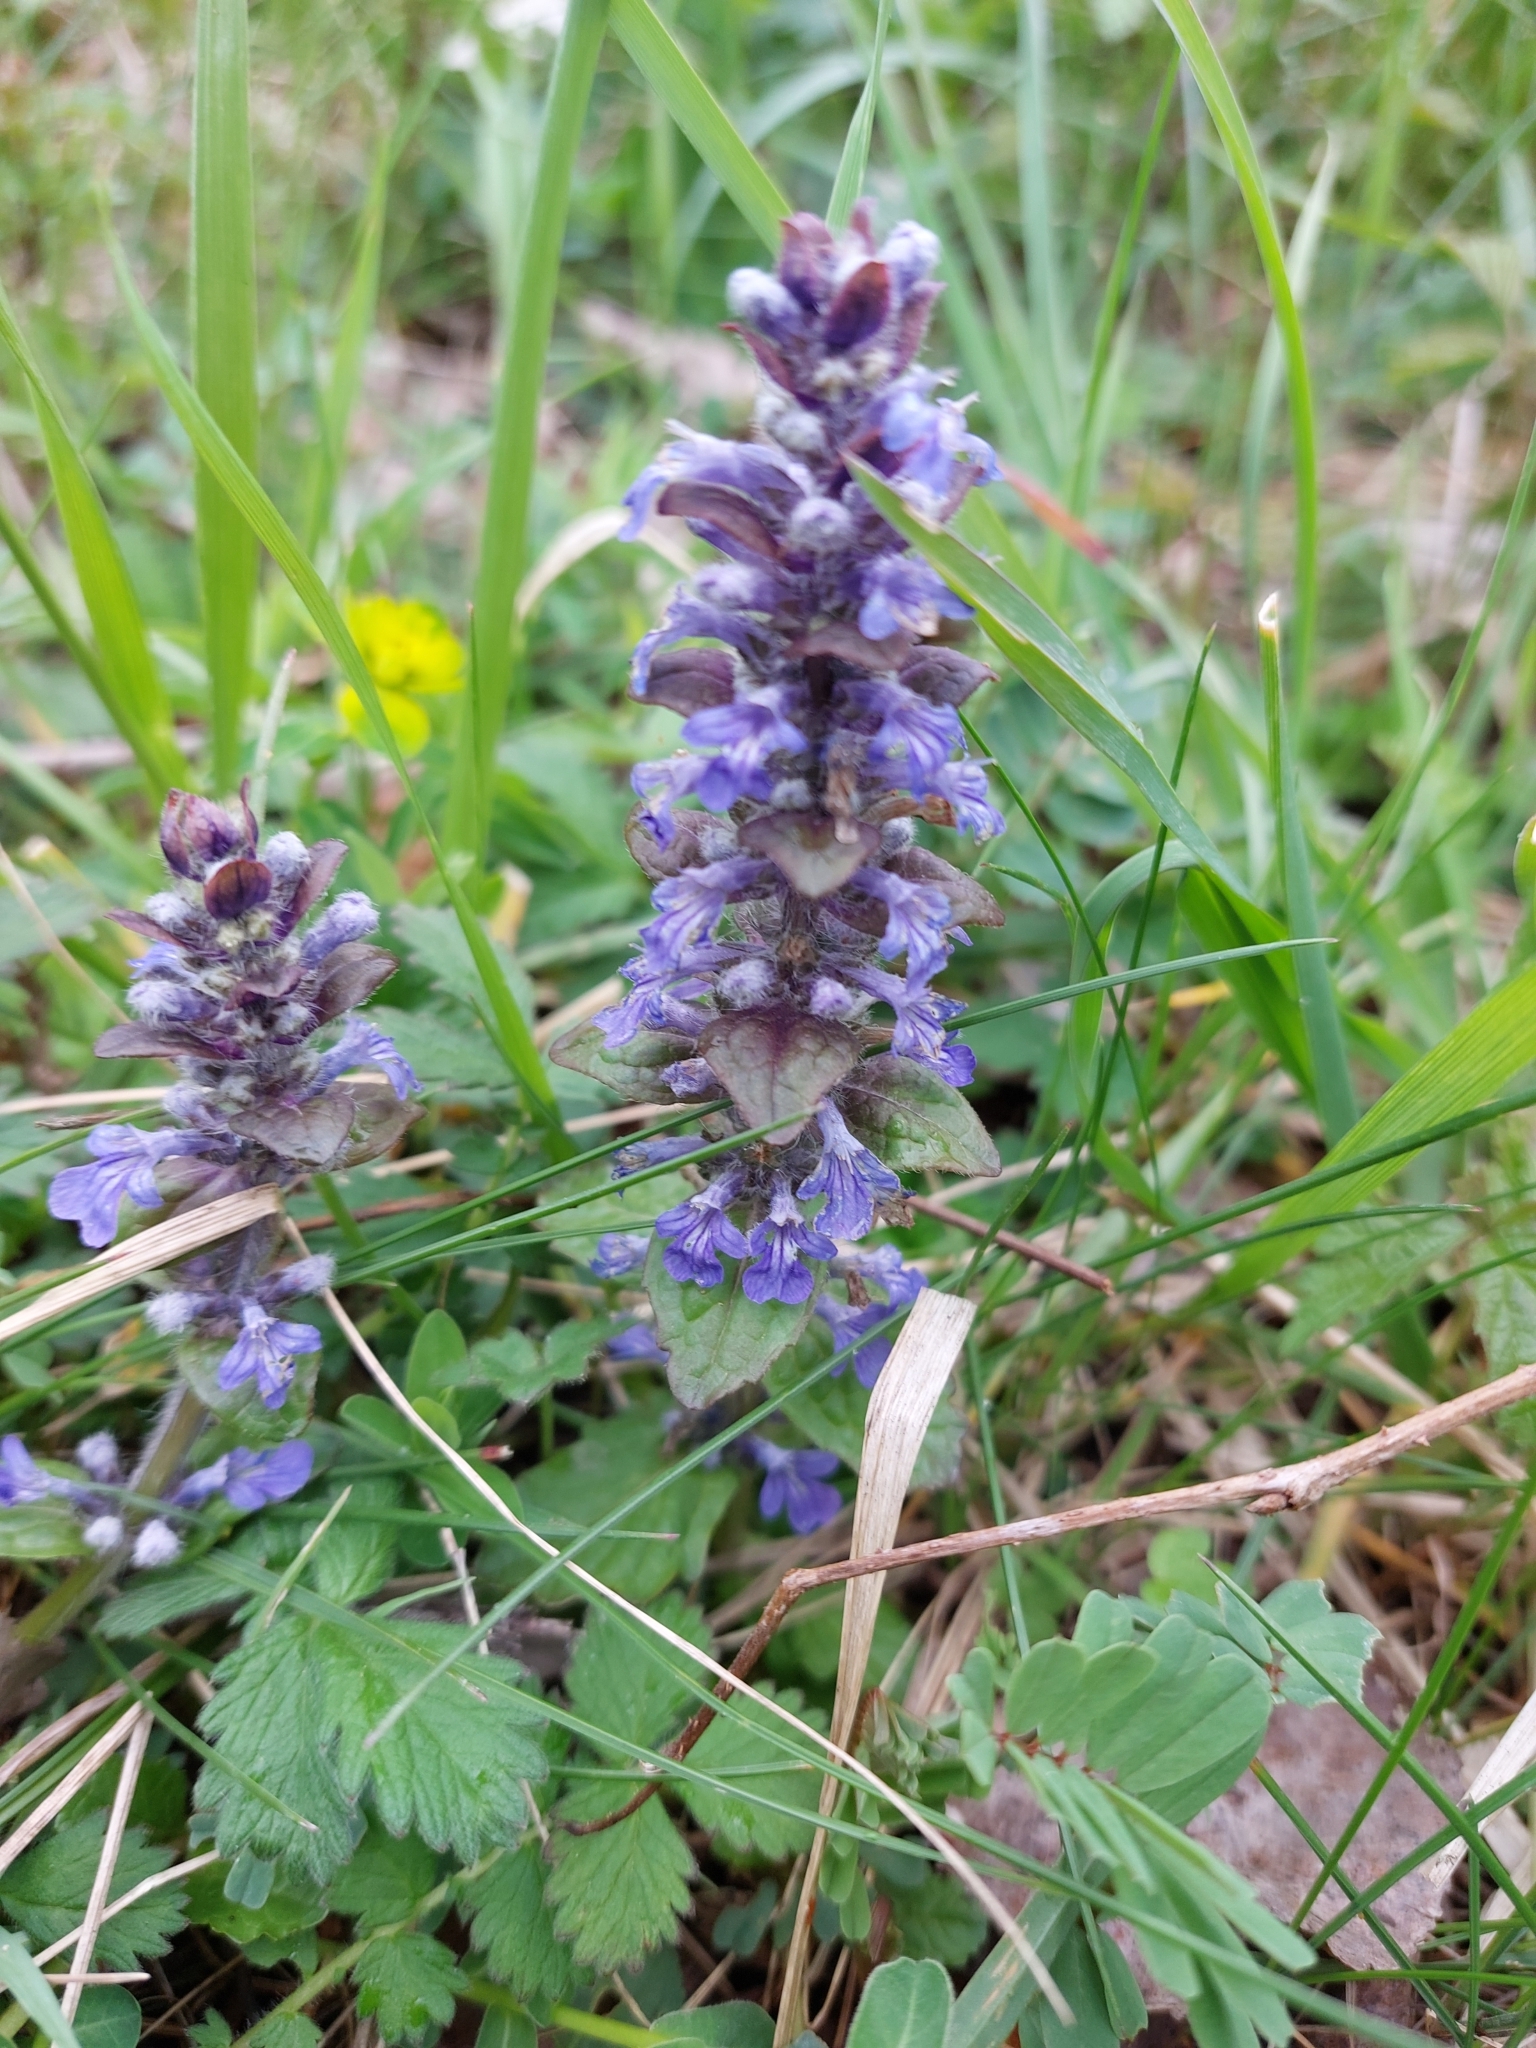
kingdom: Plantae
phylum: Tracheophyta
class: Magnoliopsida
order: Lamiales
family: Lamiaceae
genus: Ajuga
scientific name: Ajuga reptans
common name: Bugle
